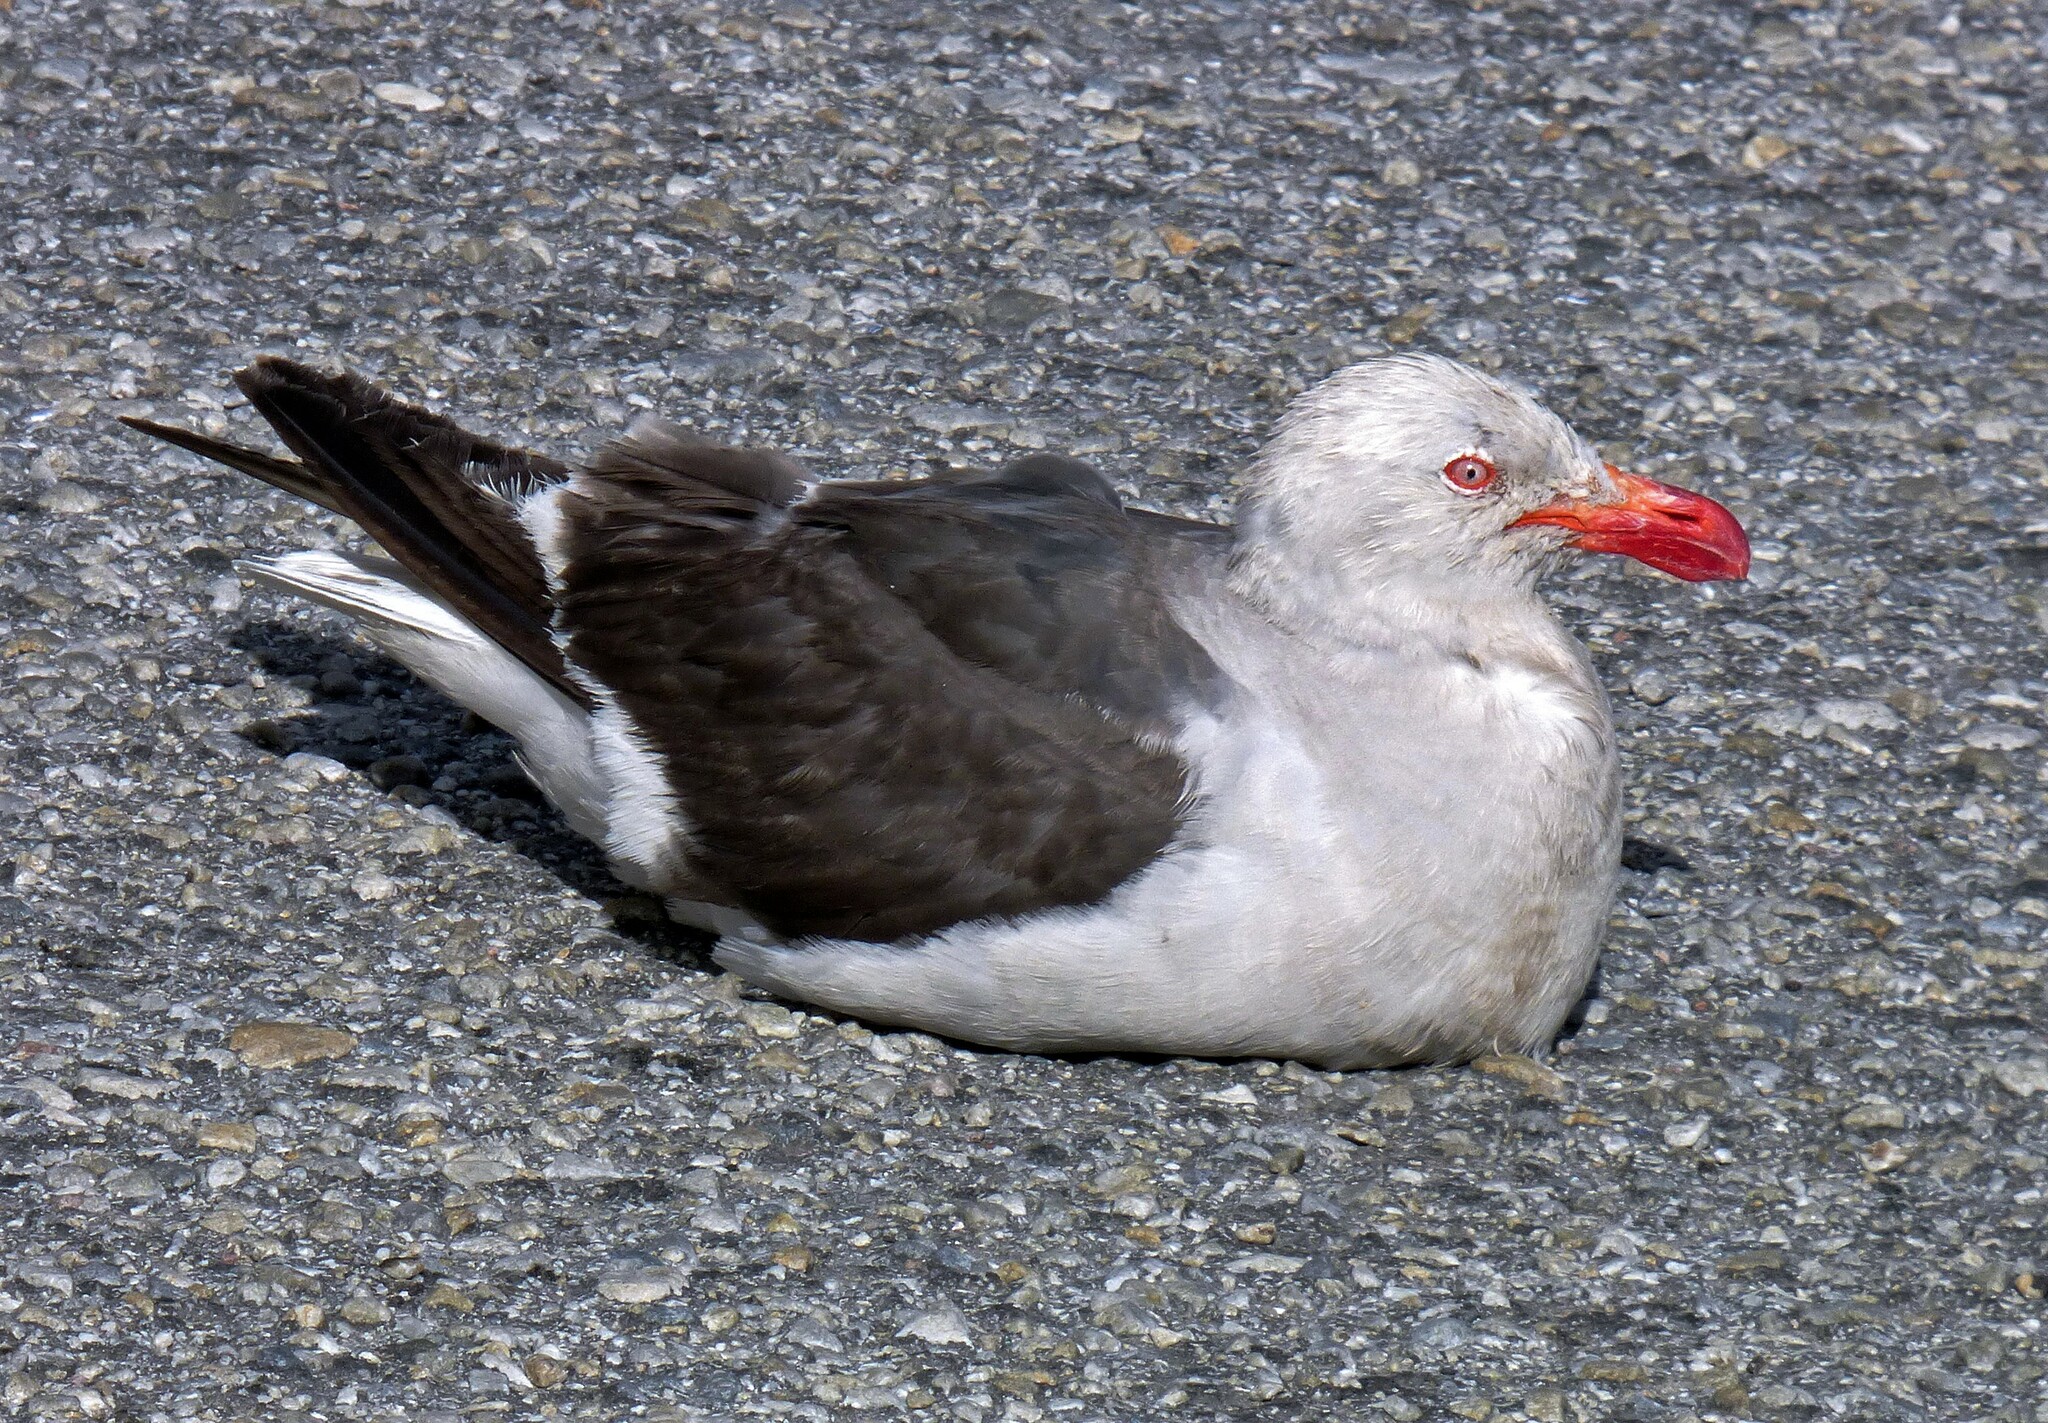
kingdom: Animalia
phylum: Chordata
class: Aves
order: Charadriiformes
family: Laridae
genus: Leucophaeus
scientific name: Leucophaeus scoresbii
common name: Dolphin gull
